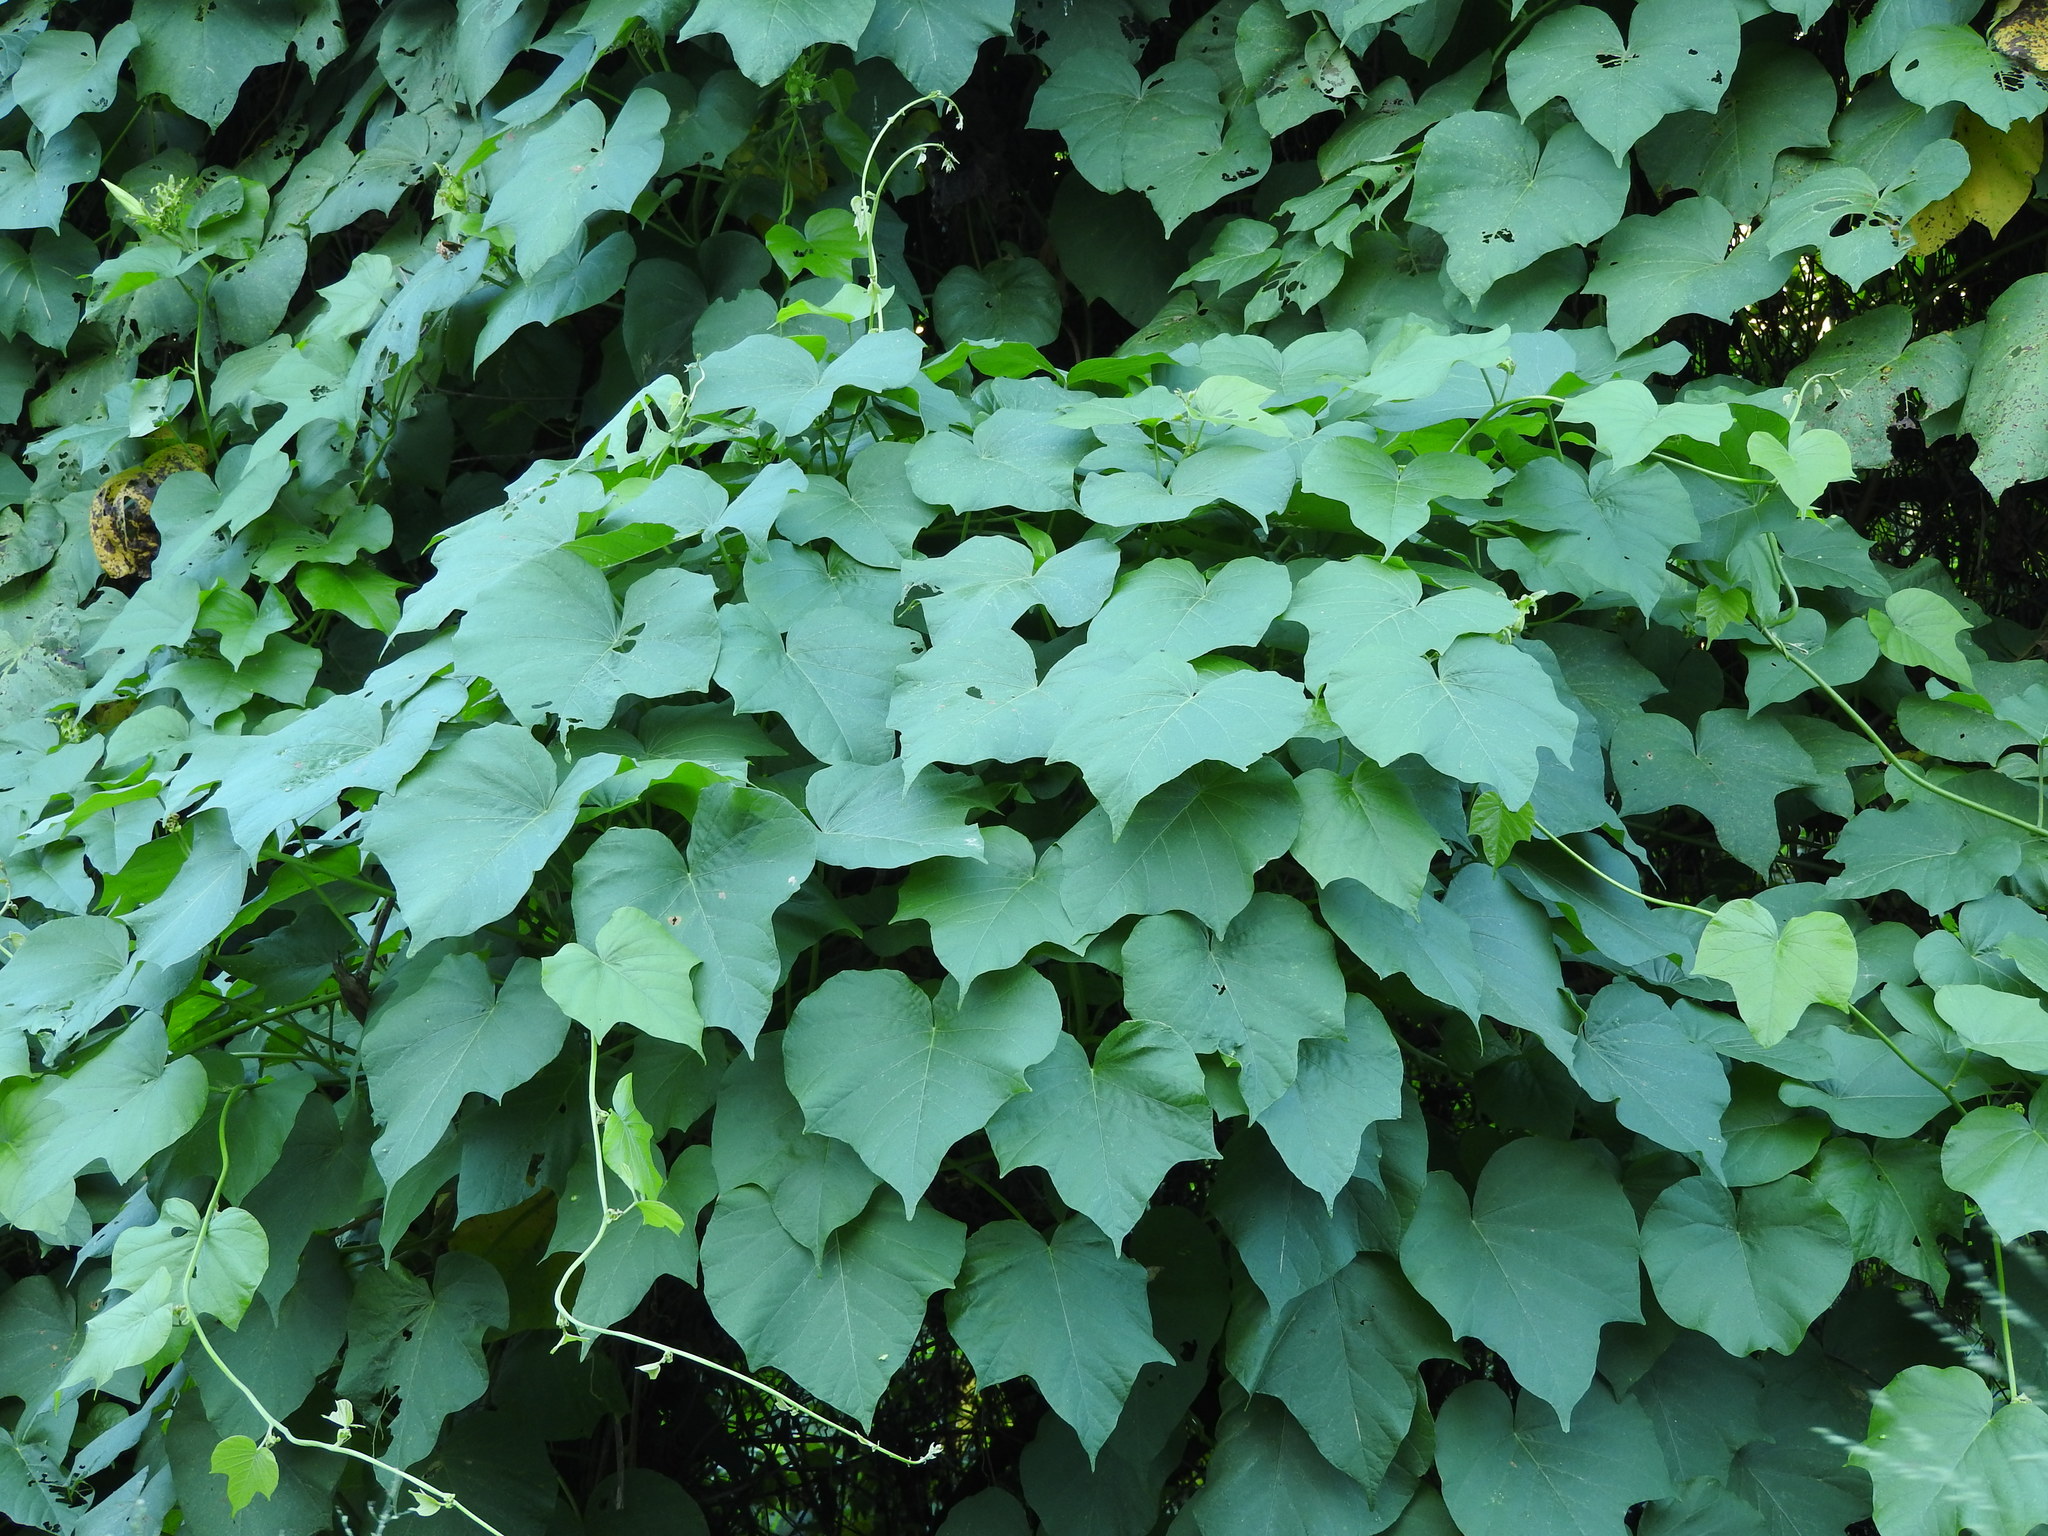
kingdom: Plantae
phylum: Tracheophyta
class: Magnoliopsida
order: Solanales
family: Convolvulaceae
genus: Ipomoea
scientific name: Ipomoea ampullacea
